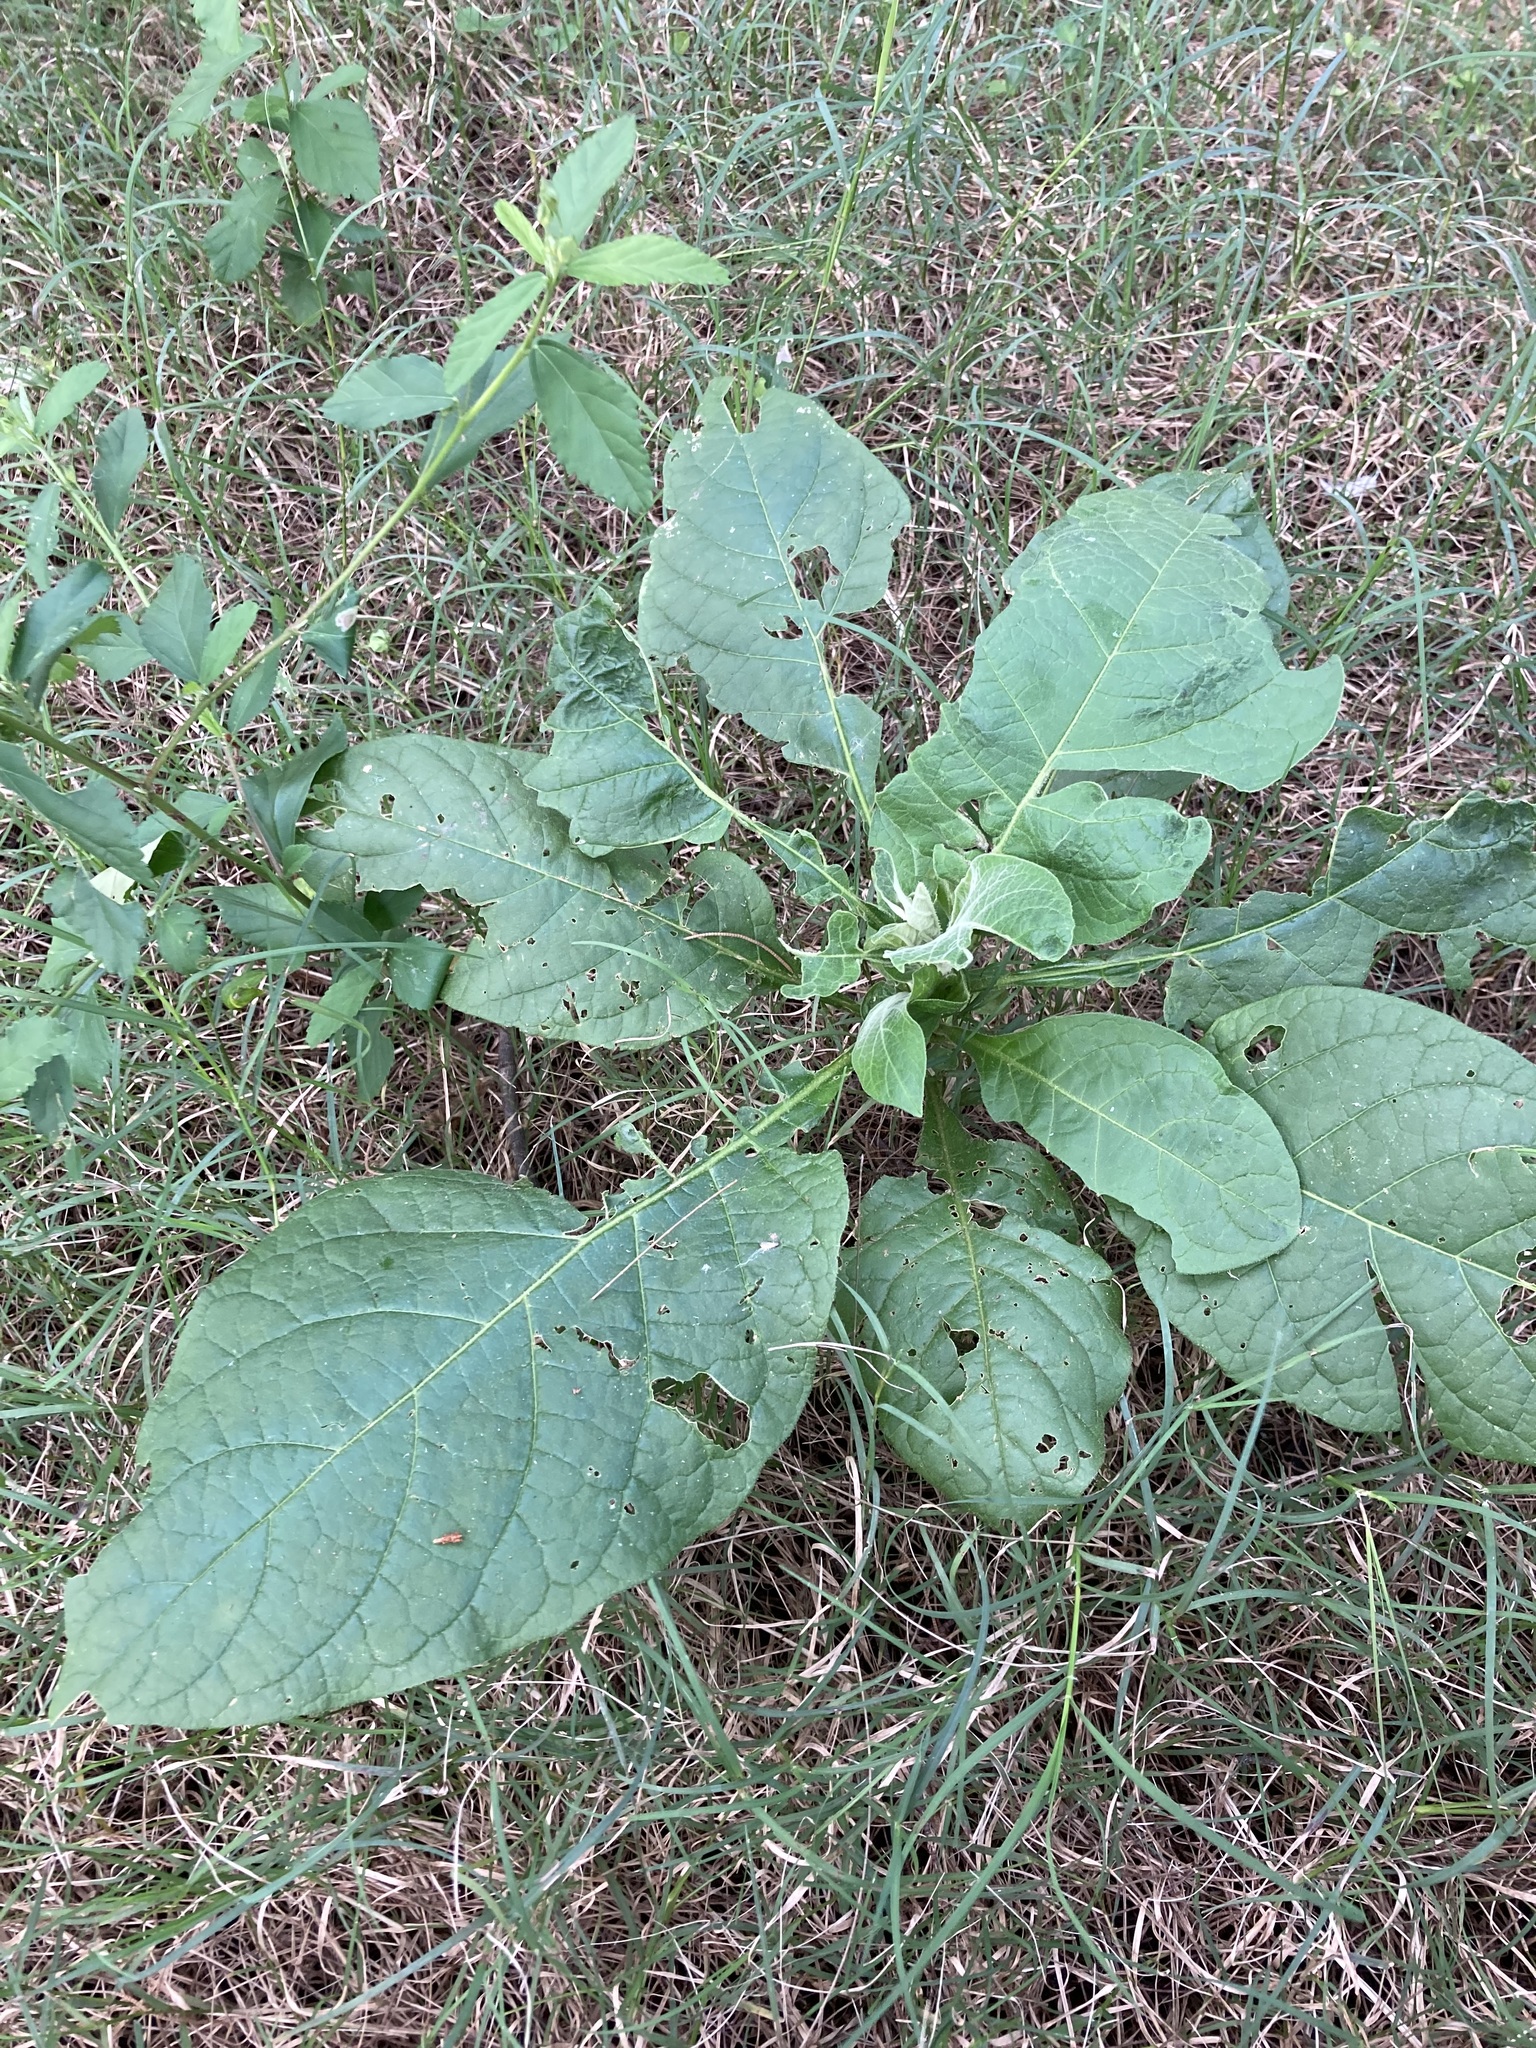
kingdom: Plantae
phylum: Tracheophyta
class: Magnoliopsida
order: Solanales
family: Solanaceae
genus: Solanum
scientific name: Solanum mauritianum
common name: Earleaf nightshade
